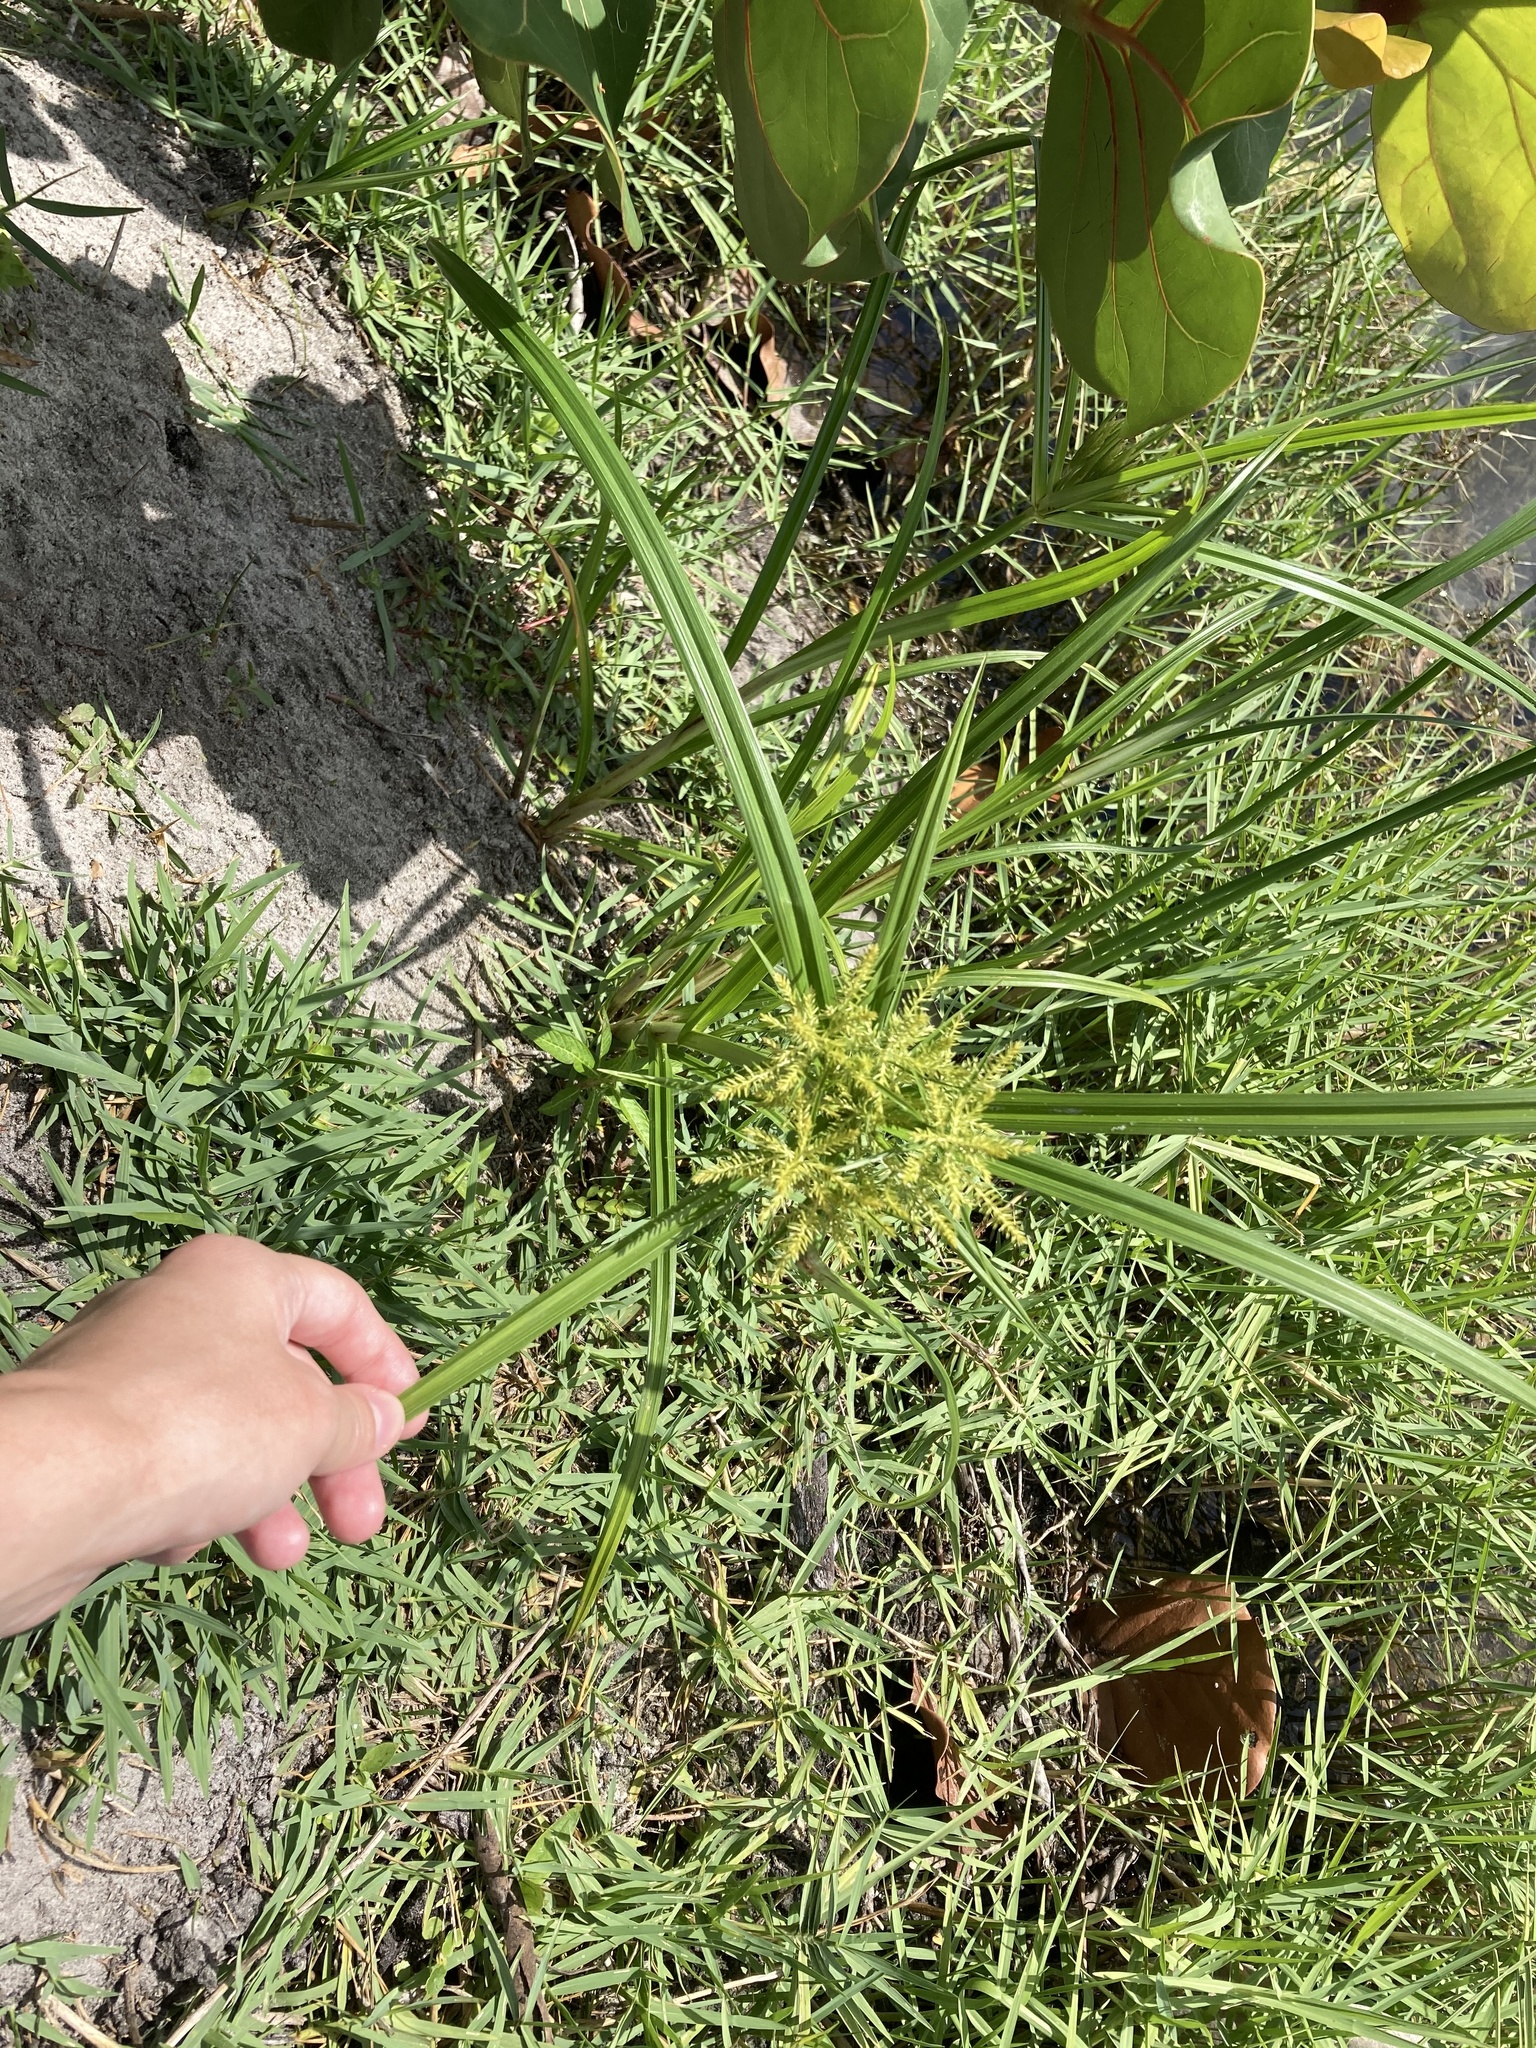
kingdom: Plantae
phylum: Tracheophyta
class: Liliopsida
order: Poales
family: Cyperaceae
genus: Cyperus
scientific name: Cyperus odoratus
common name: Fragrant flatsedge
